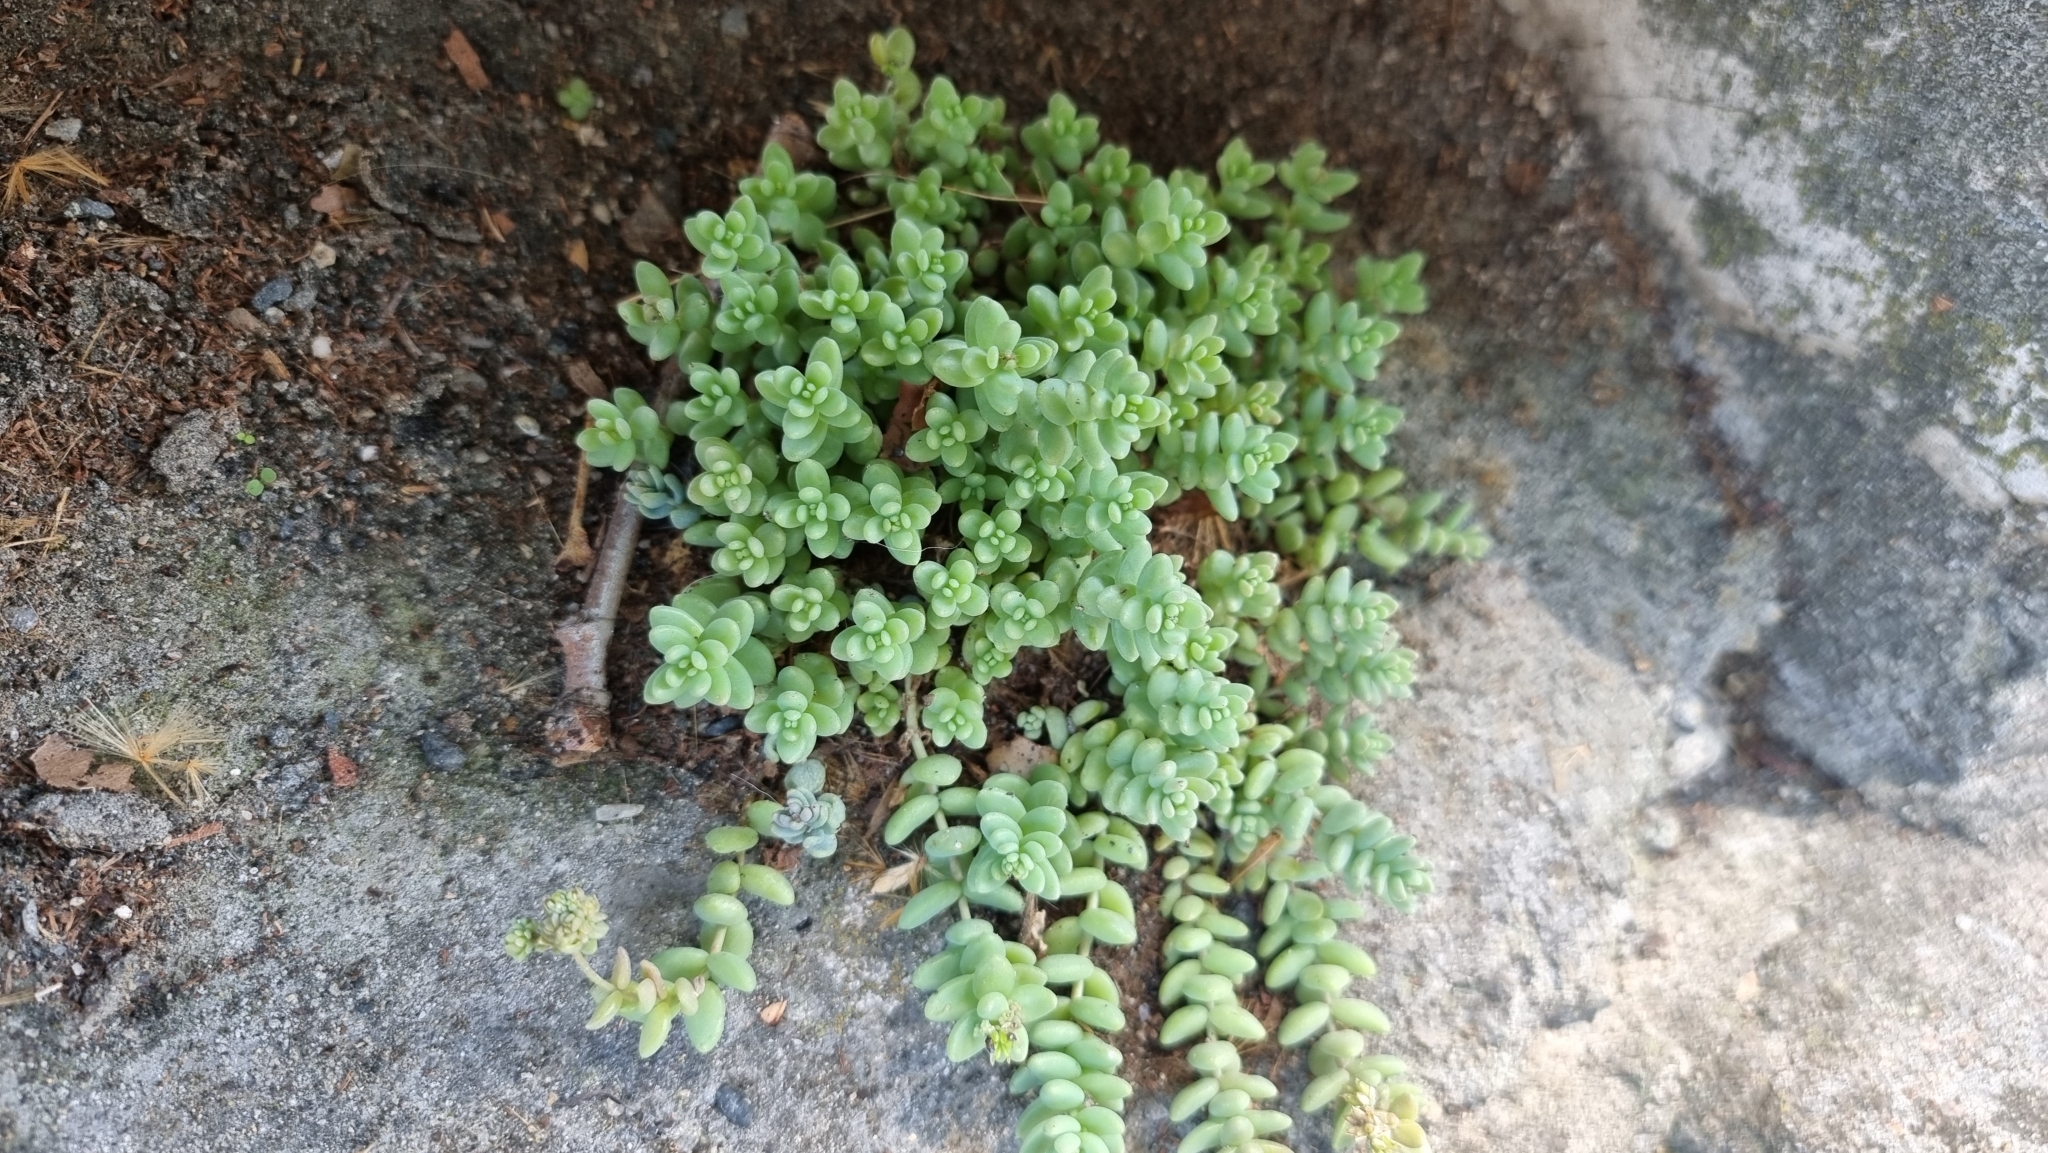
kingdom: Plantae
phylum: Tracheophyta
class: Magnoliopsida
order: Saxifragales
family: Crassulaceae
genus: Sedum
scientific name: Sedum dasyphyllum
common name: Thick-leaf stonecrop
